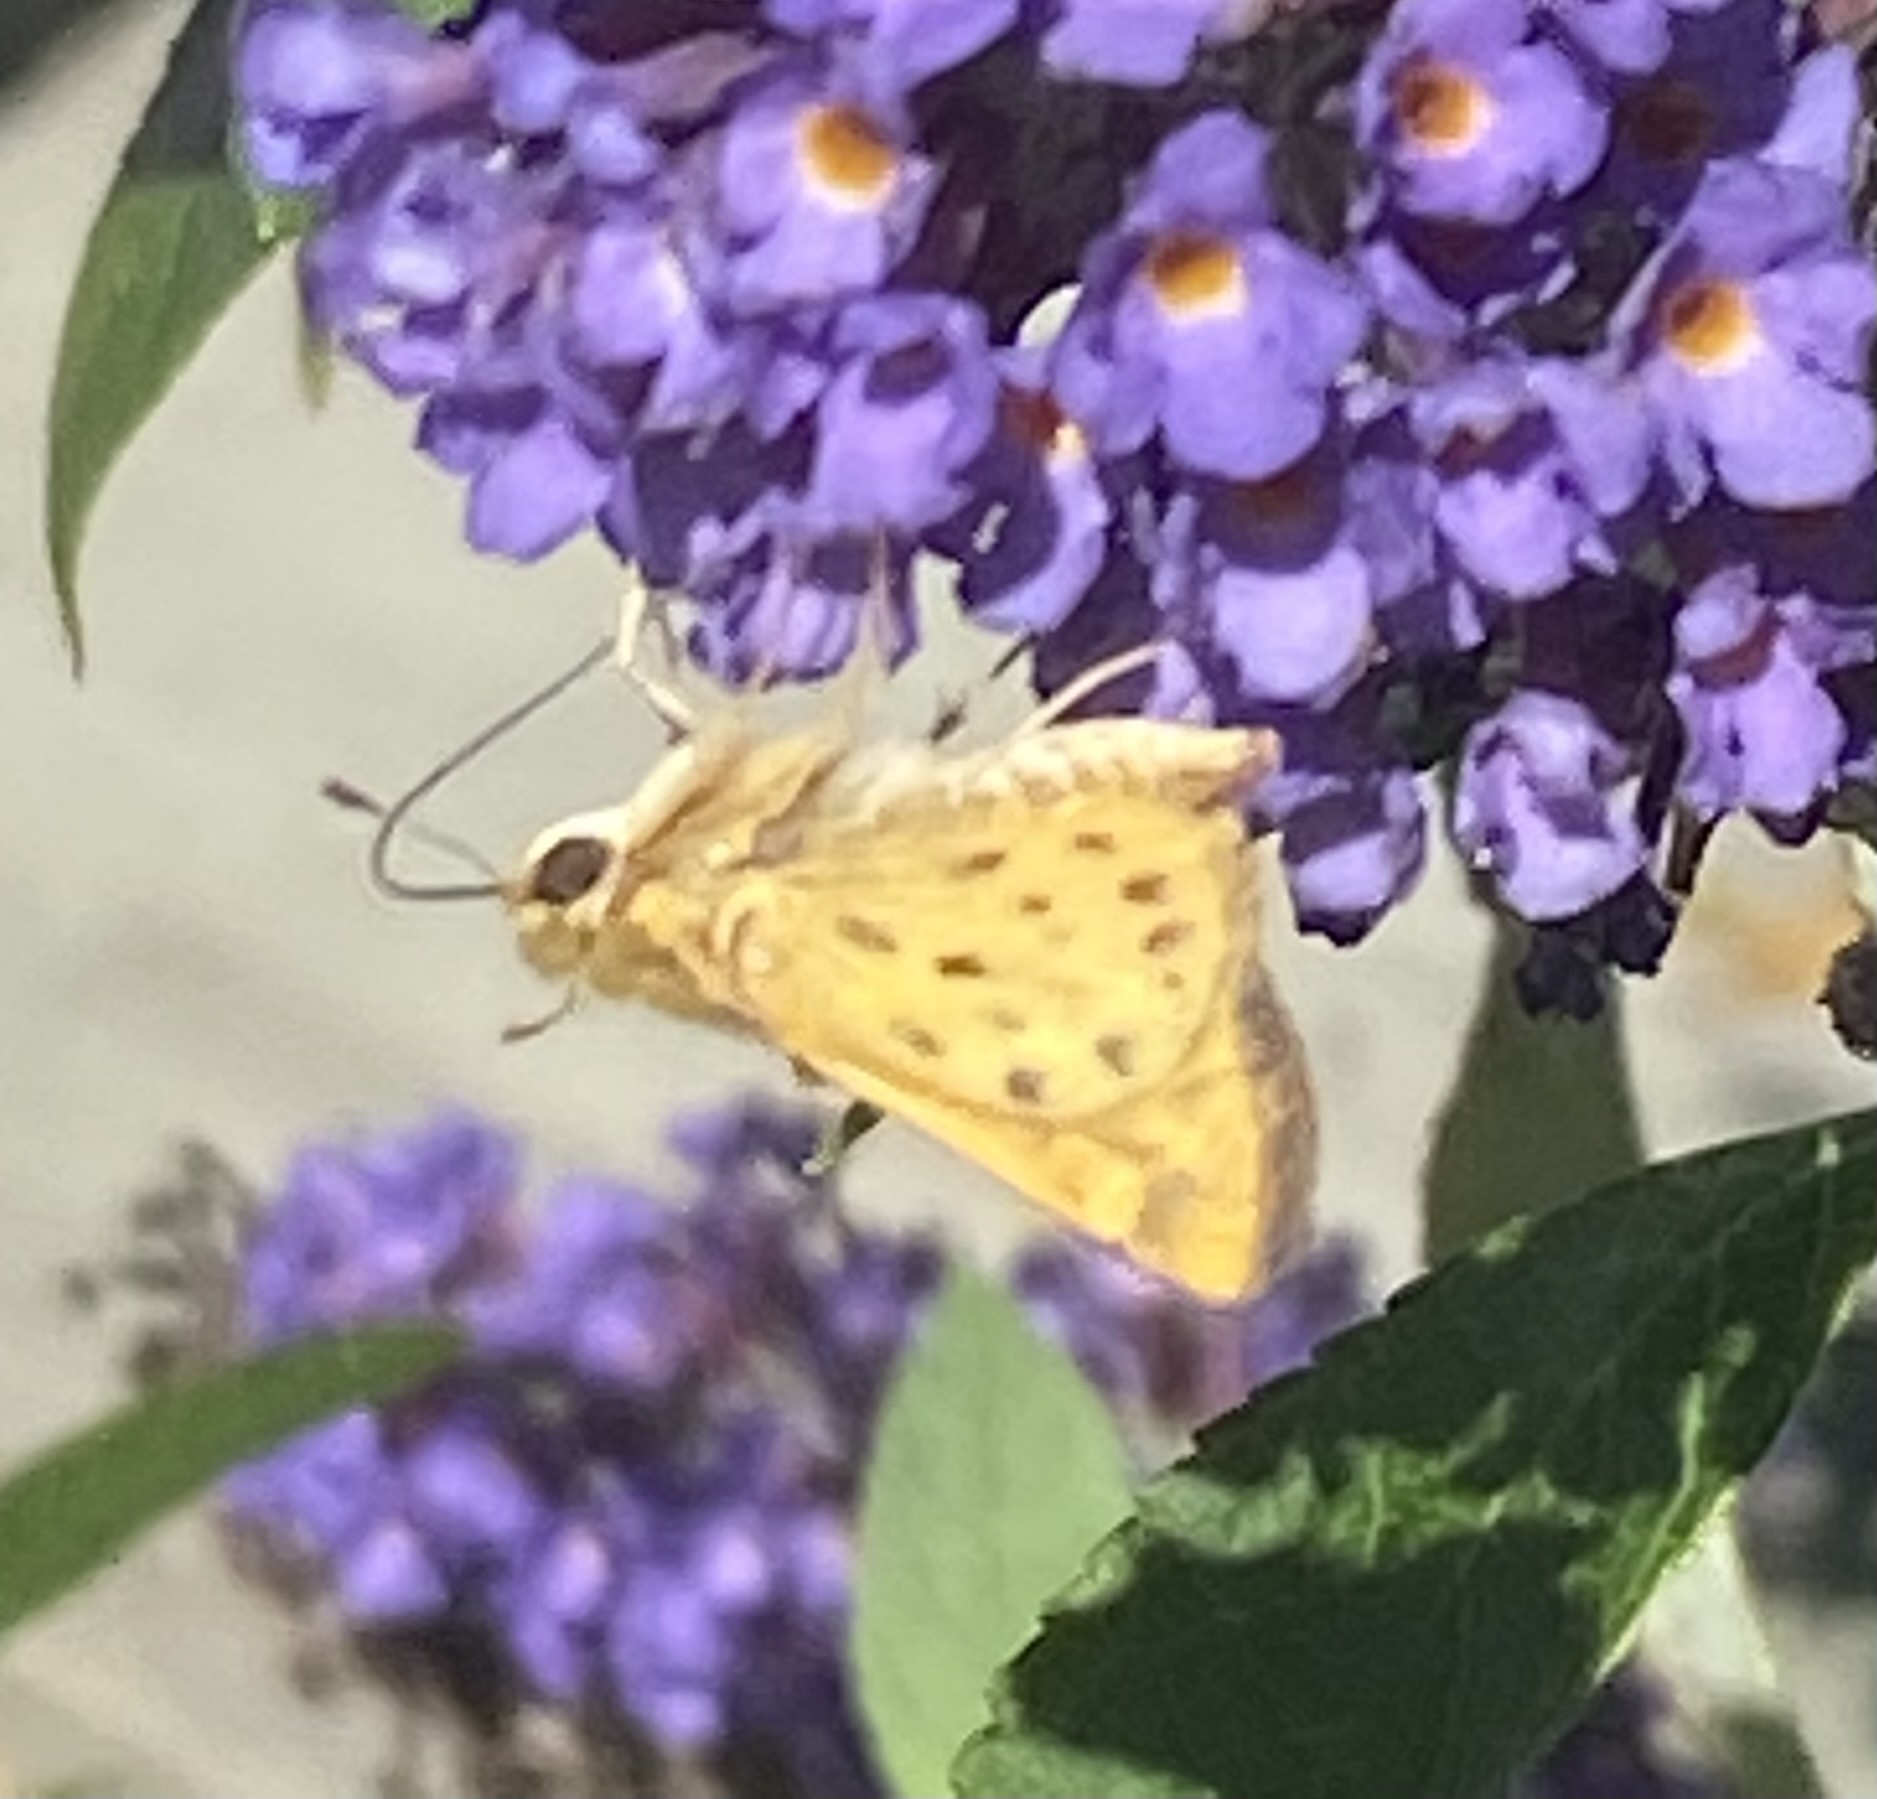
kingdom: Animalia
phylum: Arthropoda
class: Insecta
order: Lepidoptera
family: Hesperiidae
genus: Hylephila
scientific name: Hylephila phyleus
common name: Fiery skipper
